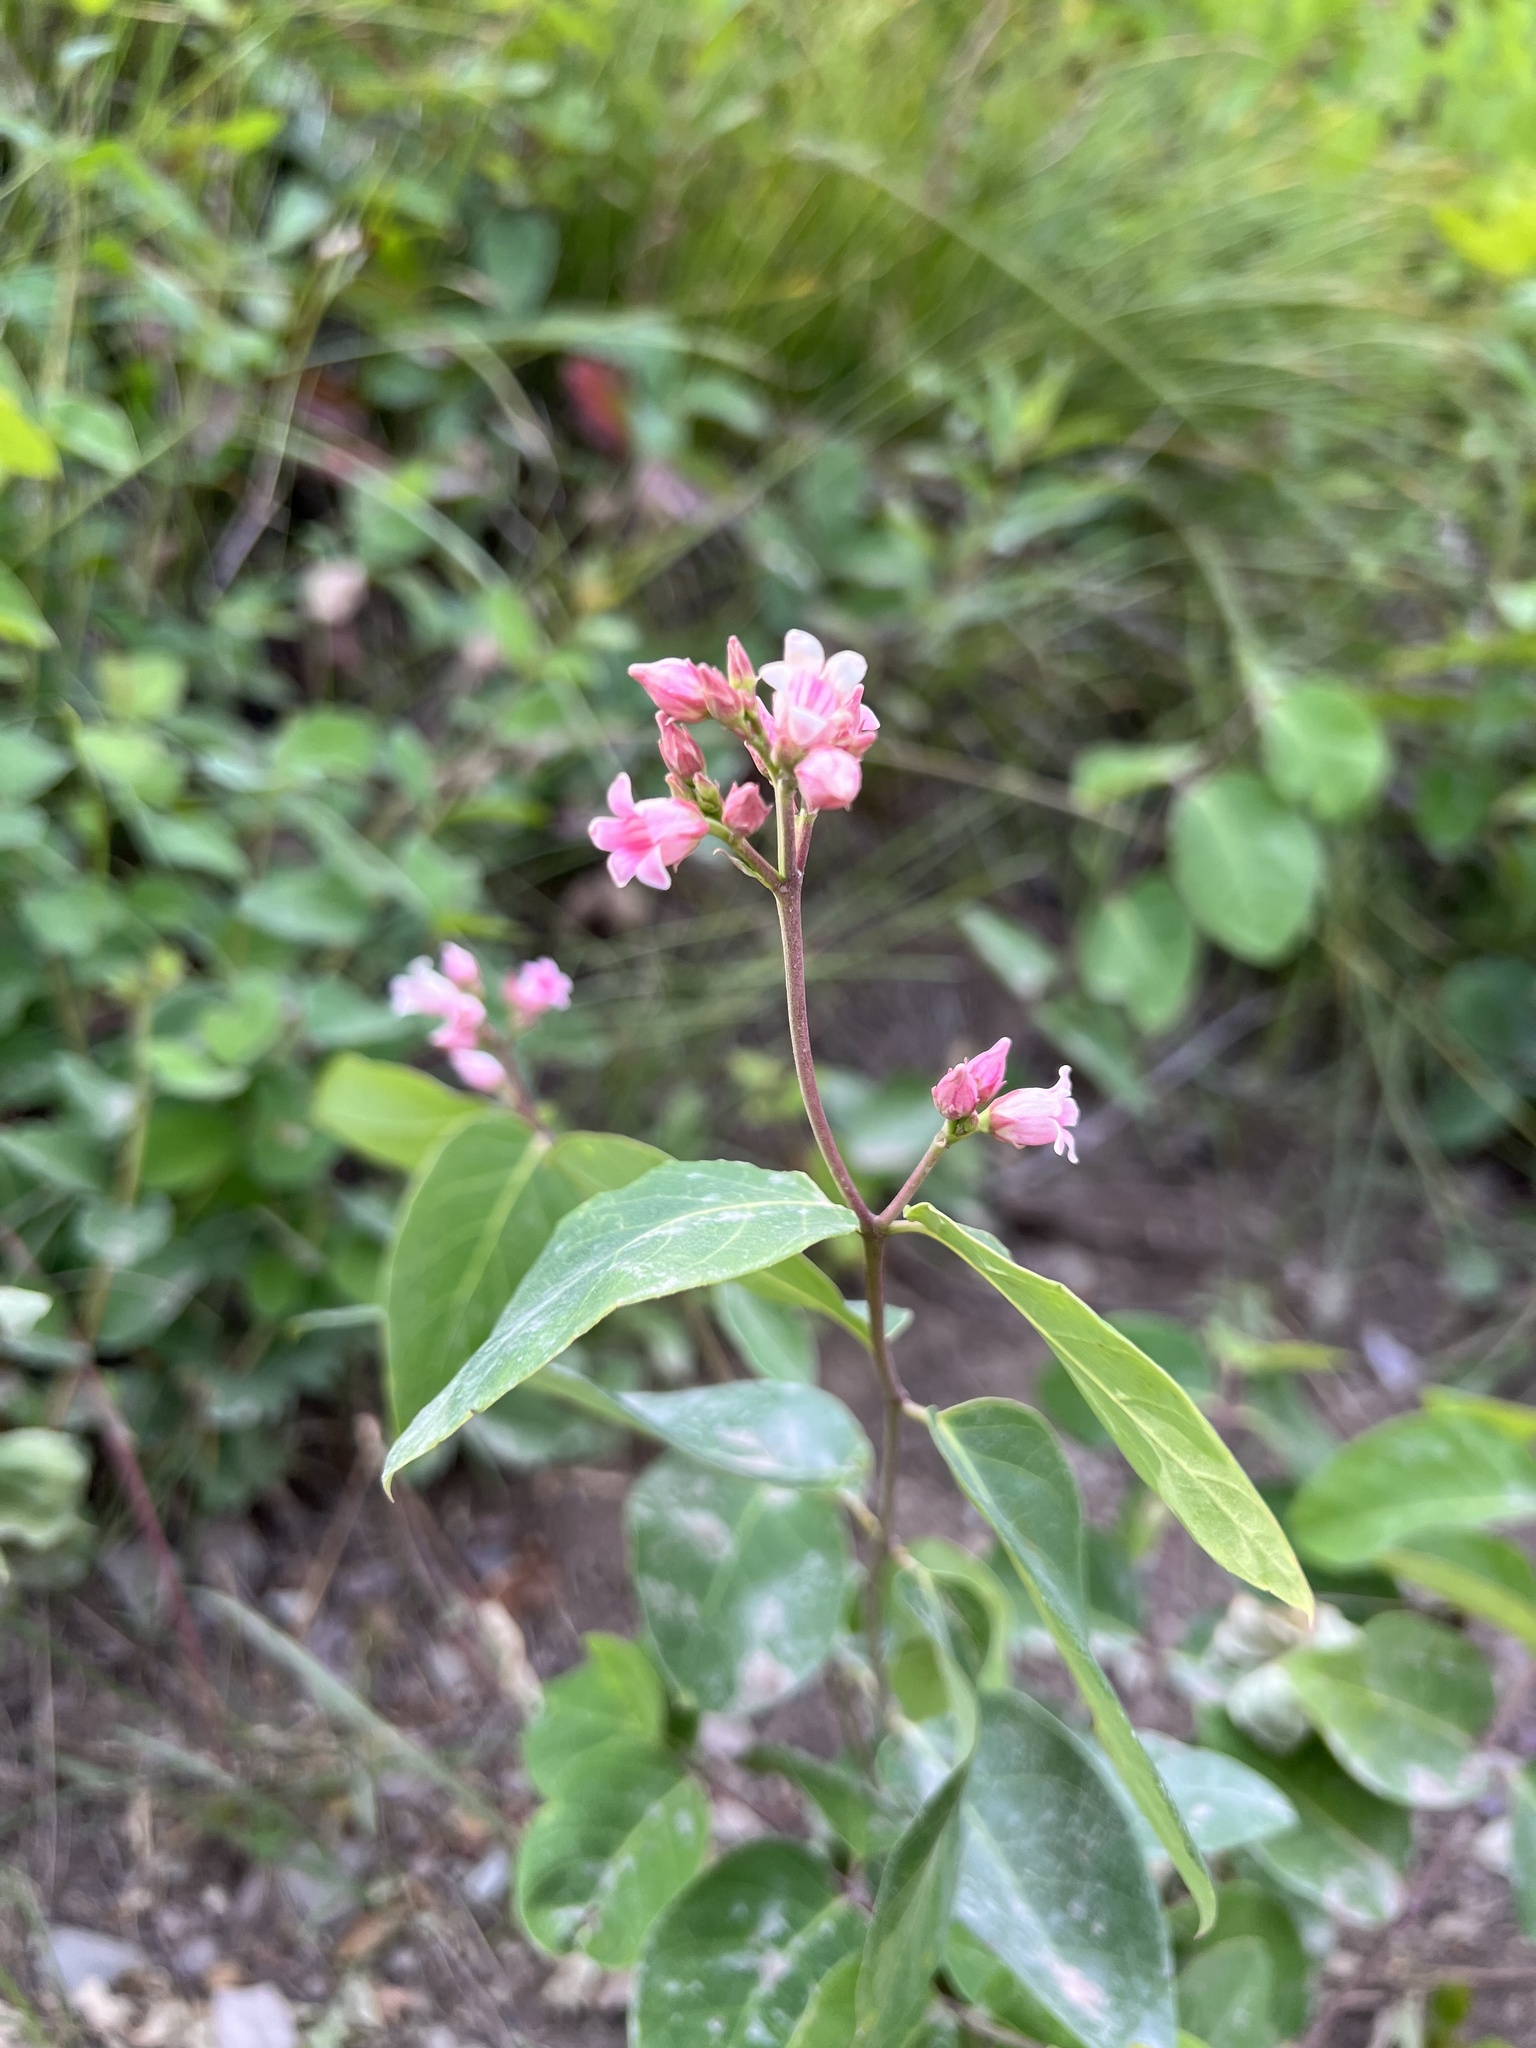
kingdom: Plantae
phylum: Tracheophyta
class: Magnoliopsida
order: Gentianales
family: Apocynaceae
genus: Apocynum
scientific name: Apocynum androsaemifolium
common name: Spreading dogbane
